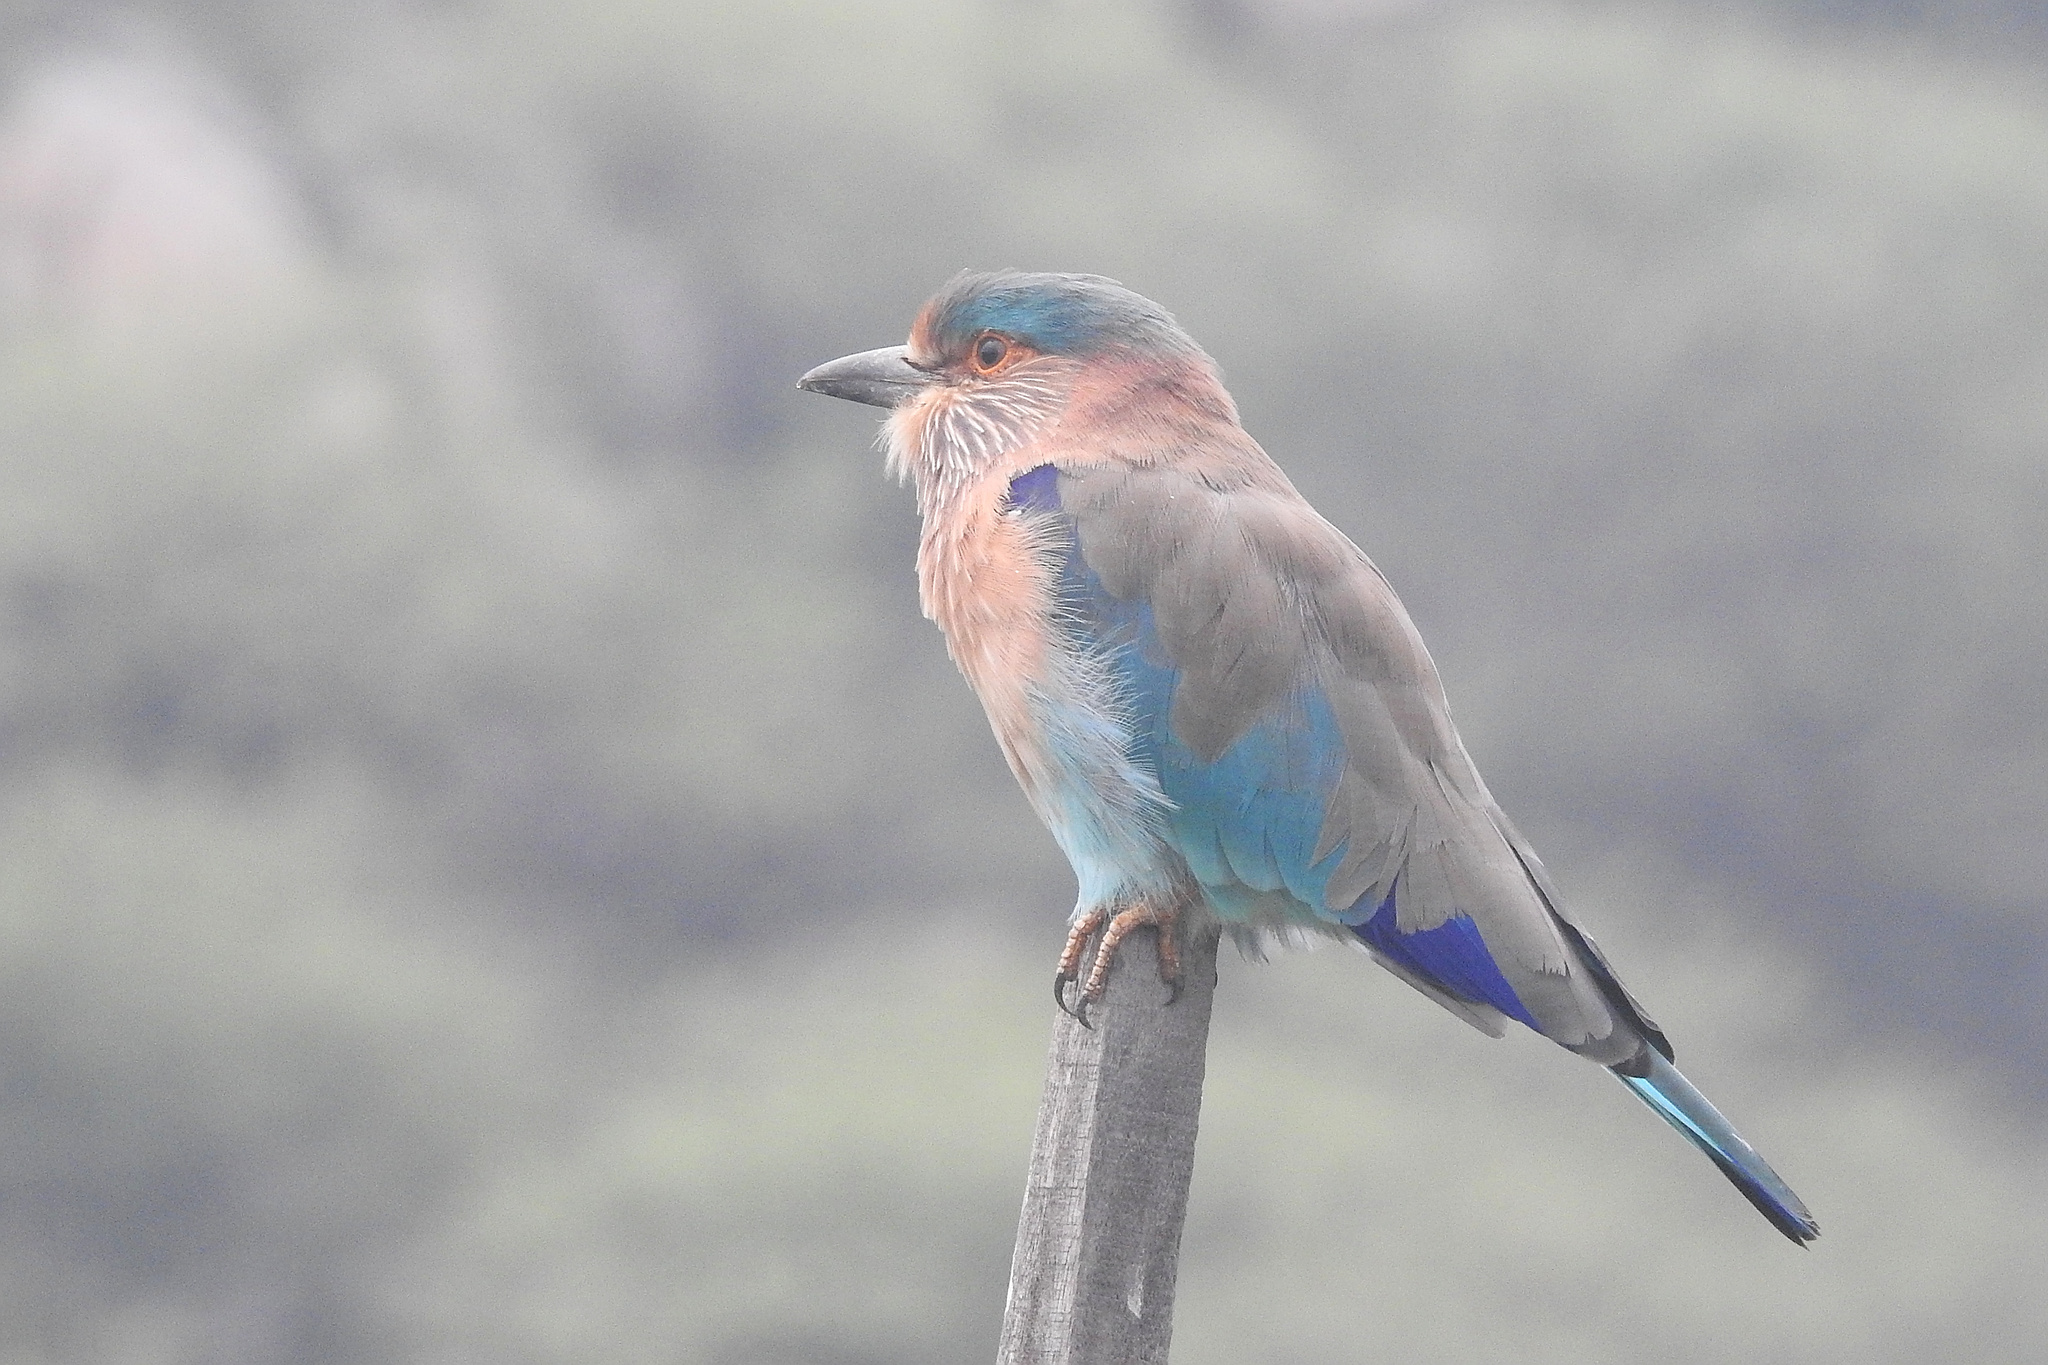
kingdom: Animalia
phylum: Chordata
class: Aves
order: Coraciiformes
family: Coraciidae
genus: Coracias
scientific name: Coracias benghalensis
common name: Indian roller
